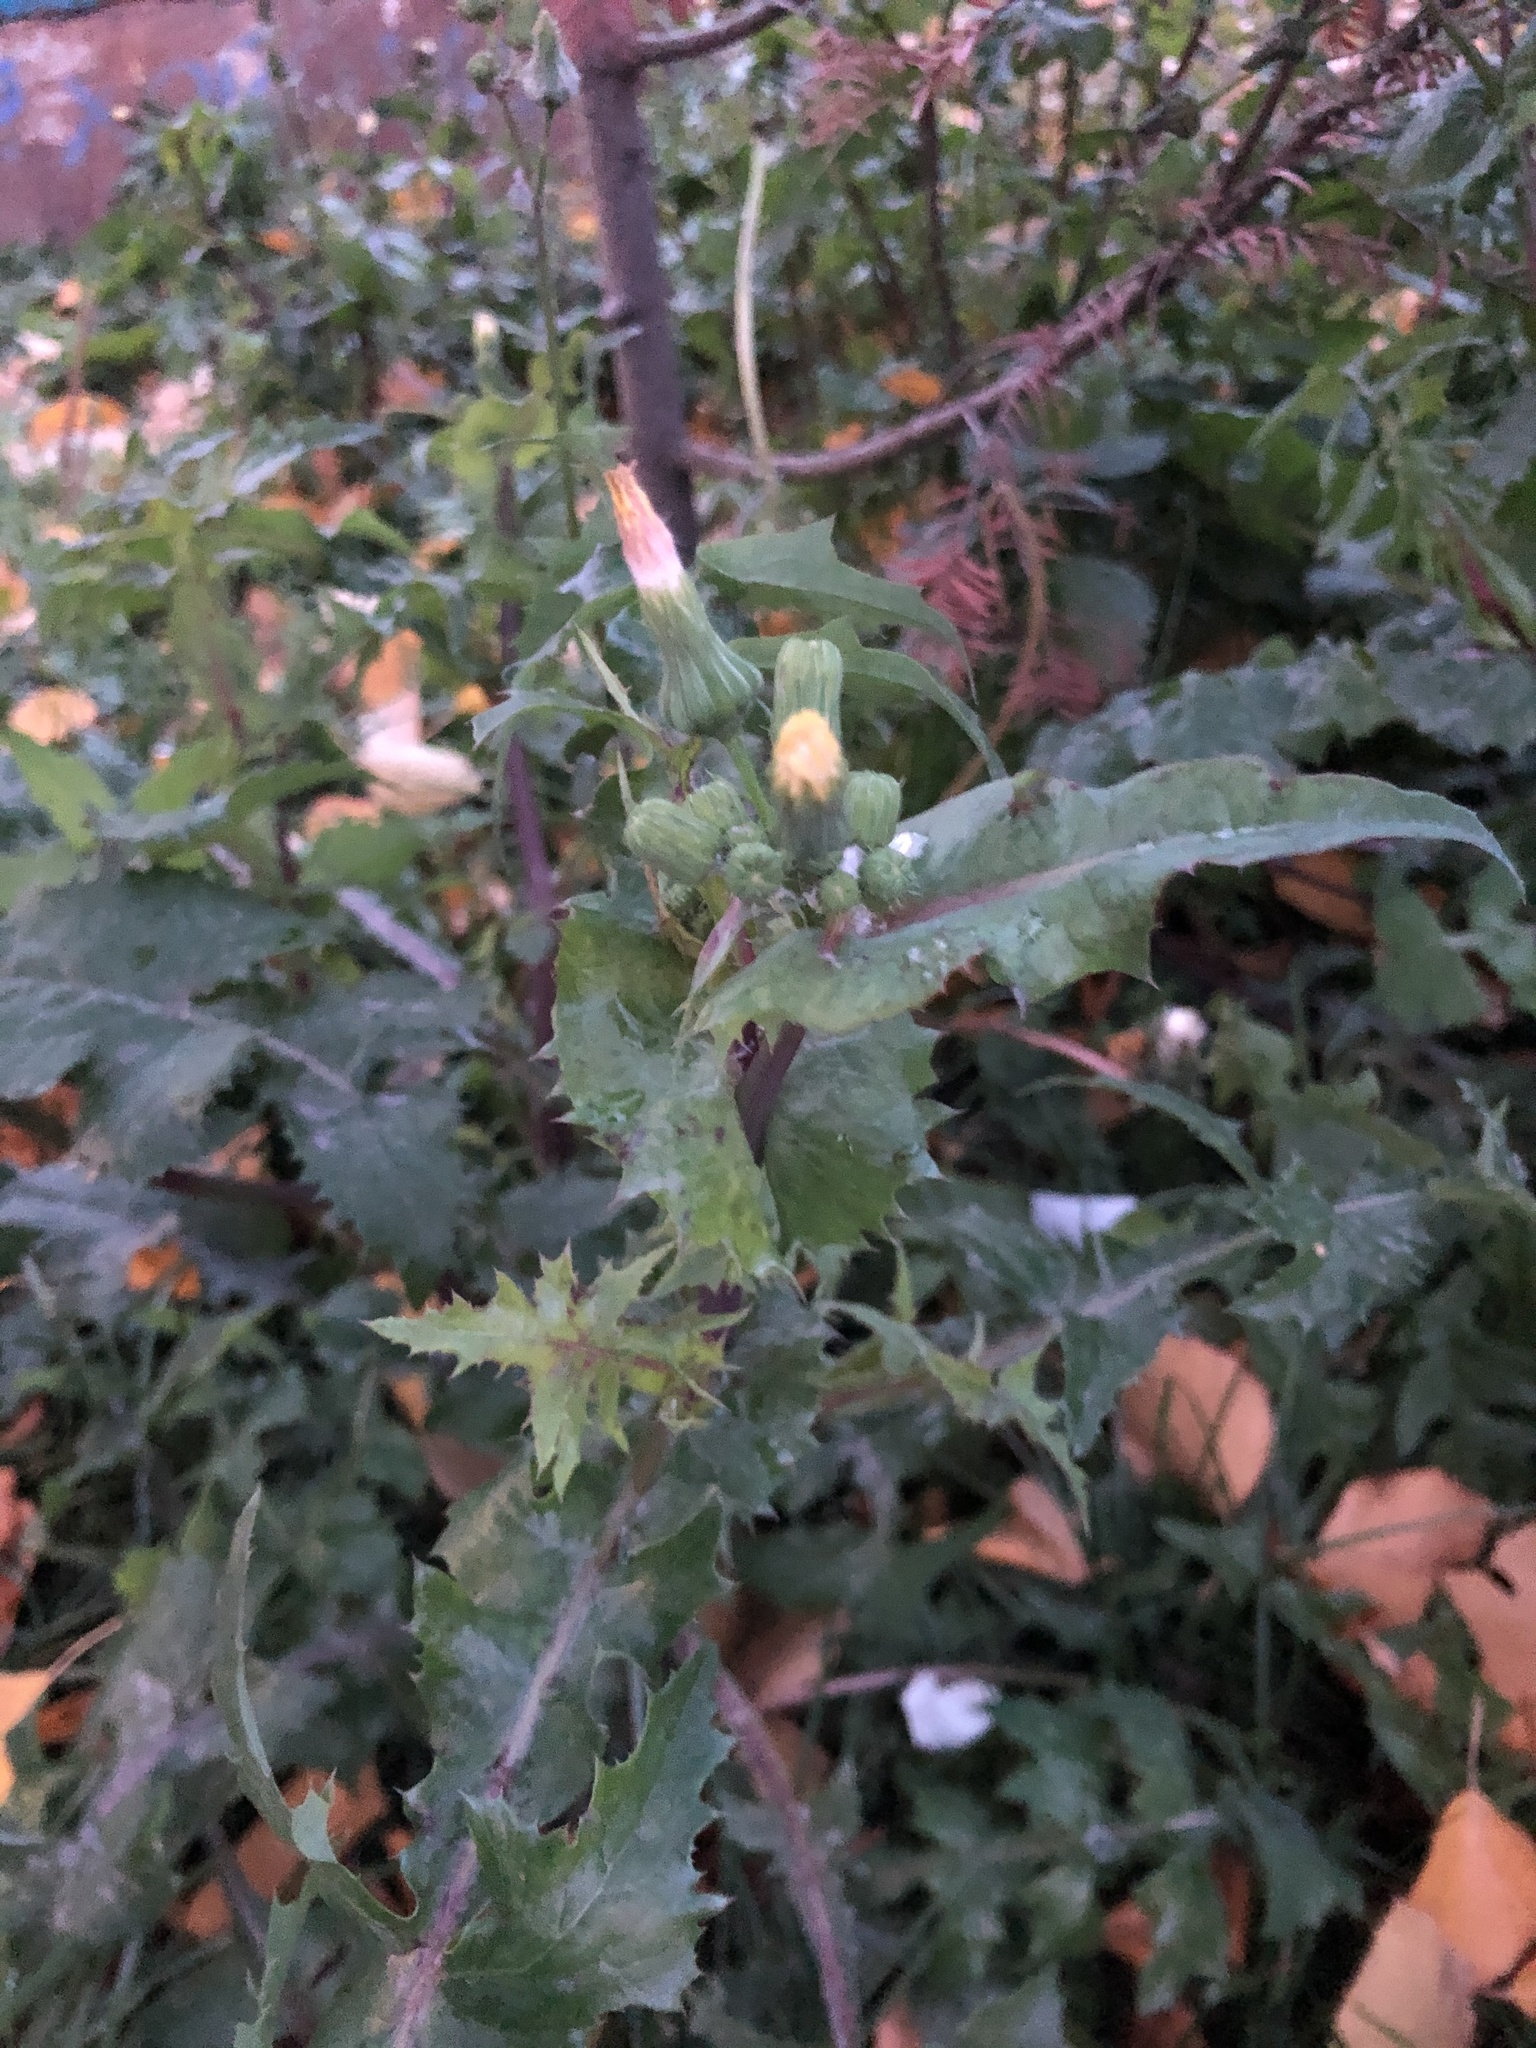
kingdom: Plantae
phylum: Tracheophyta
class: Magnoliopsida
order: Asterales
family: Asteraceae
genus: Sonchus
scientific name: Sonchus oleraceus
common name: Common sowthistle
